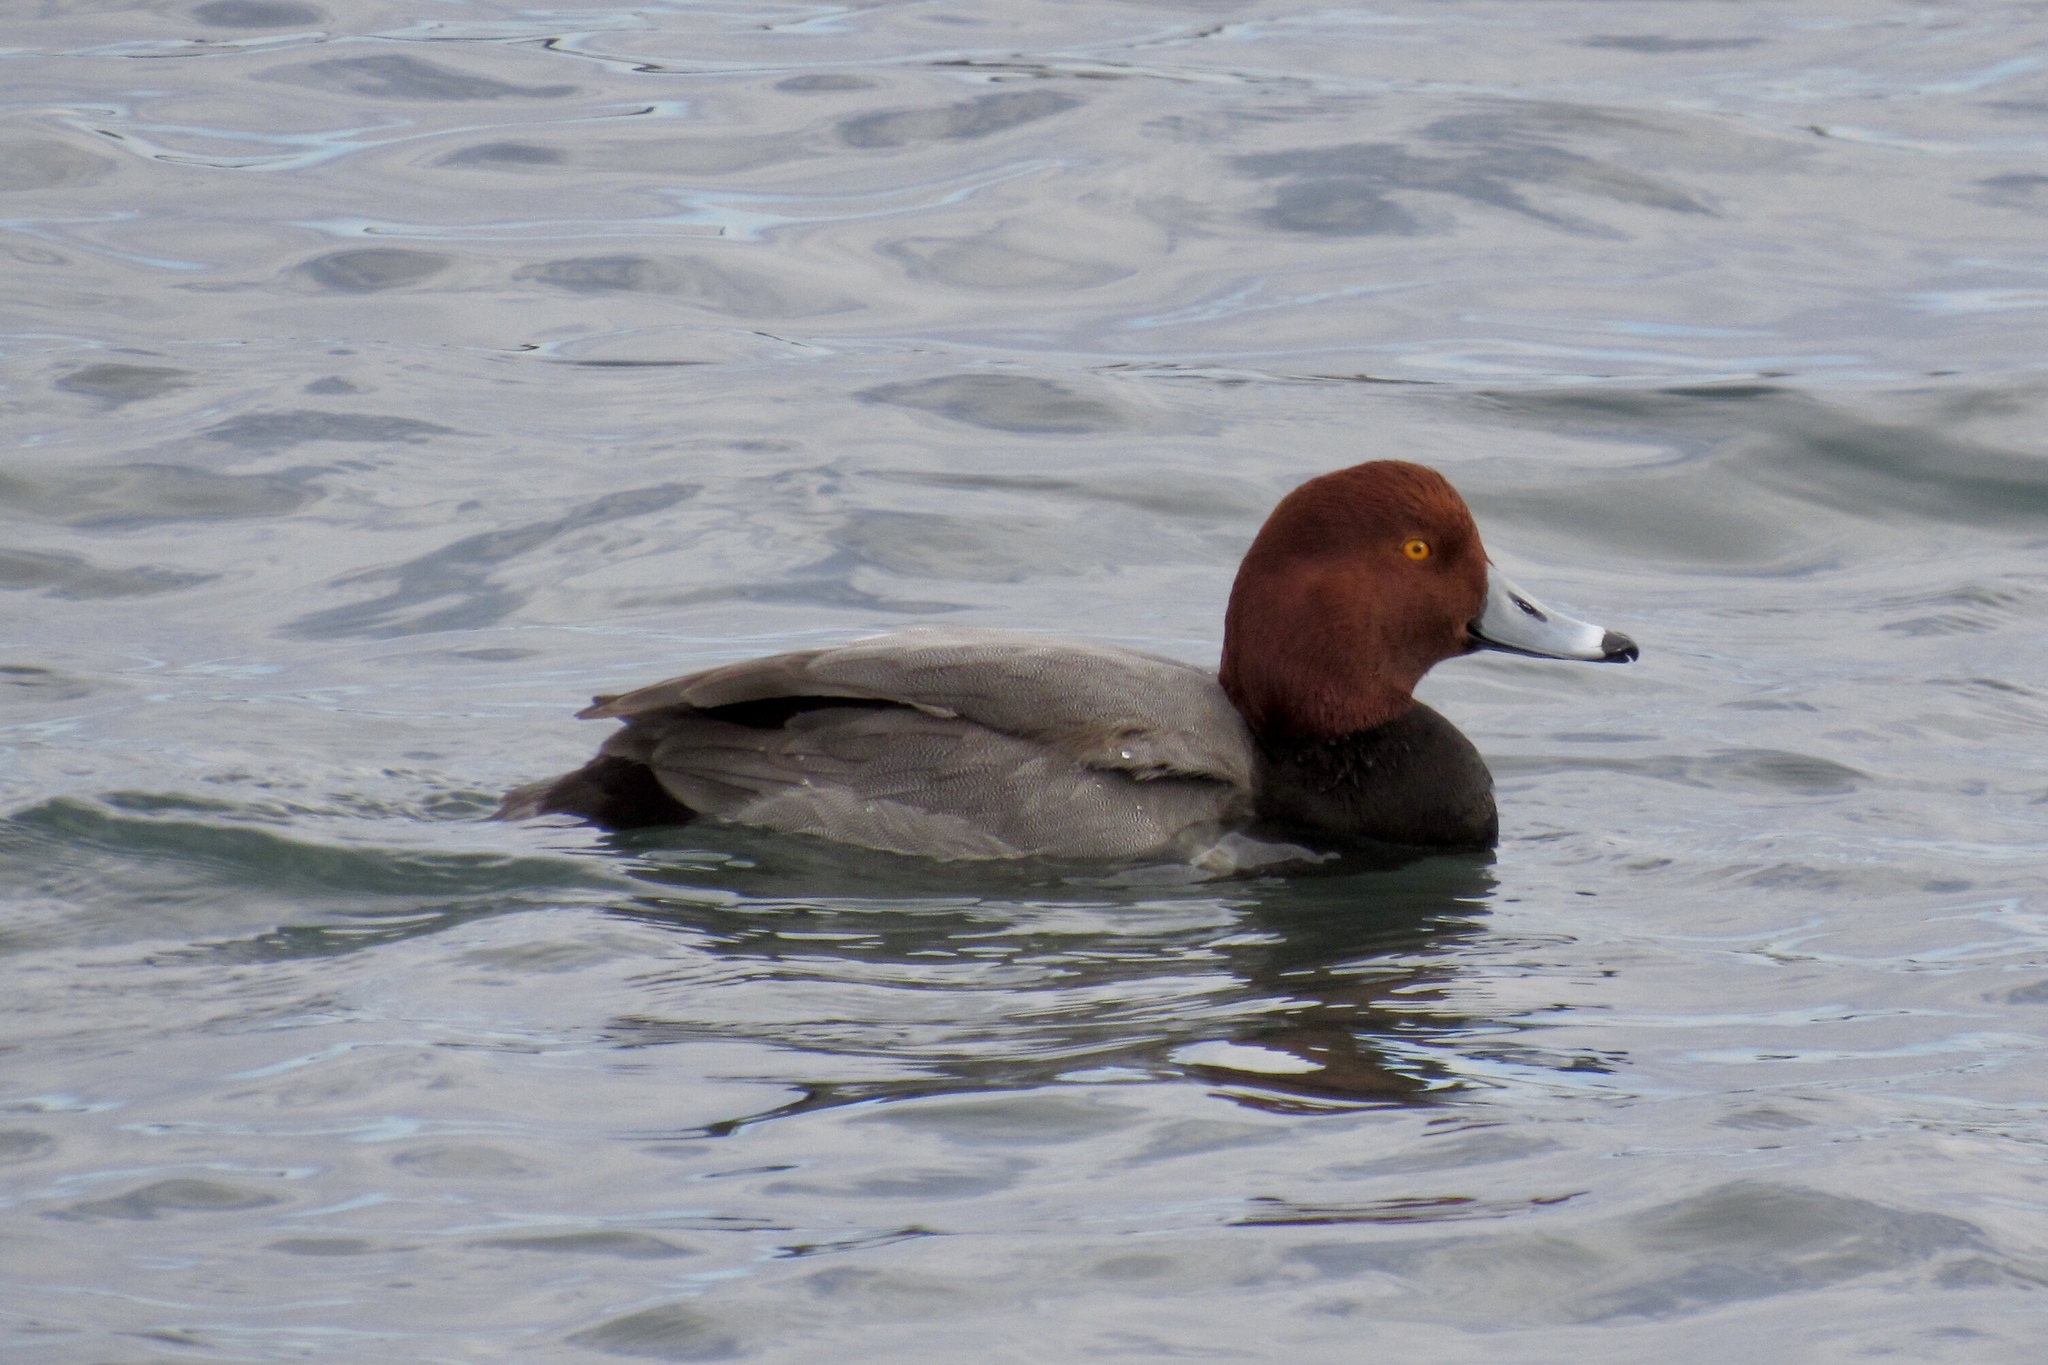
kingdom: Animalia
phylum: Chordata
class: Aves
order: Anseriformes
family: Anatidae
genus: Aythya
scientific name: Aythya americana
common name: Redhead
